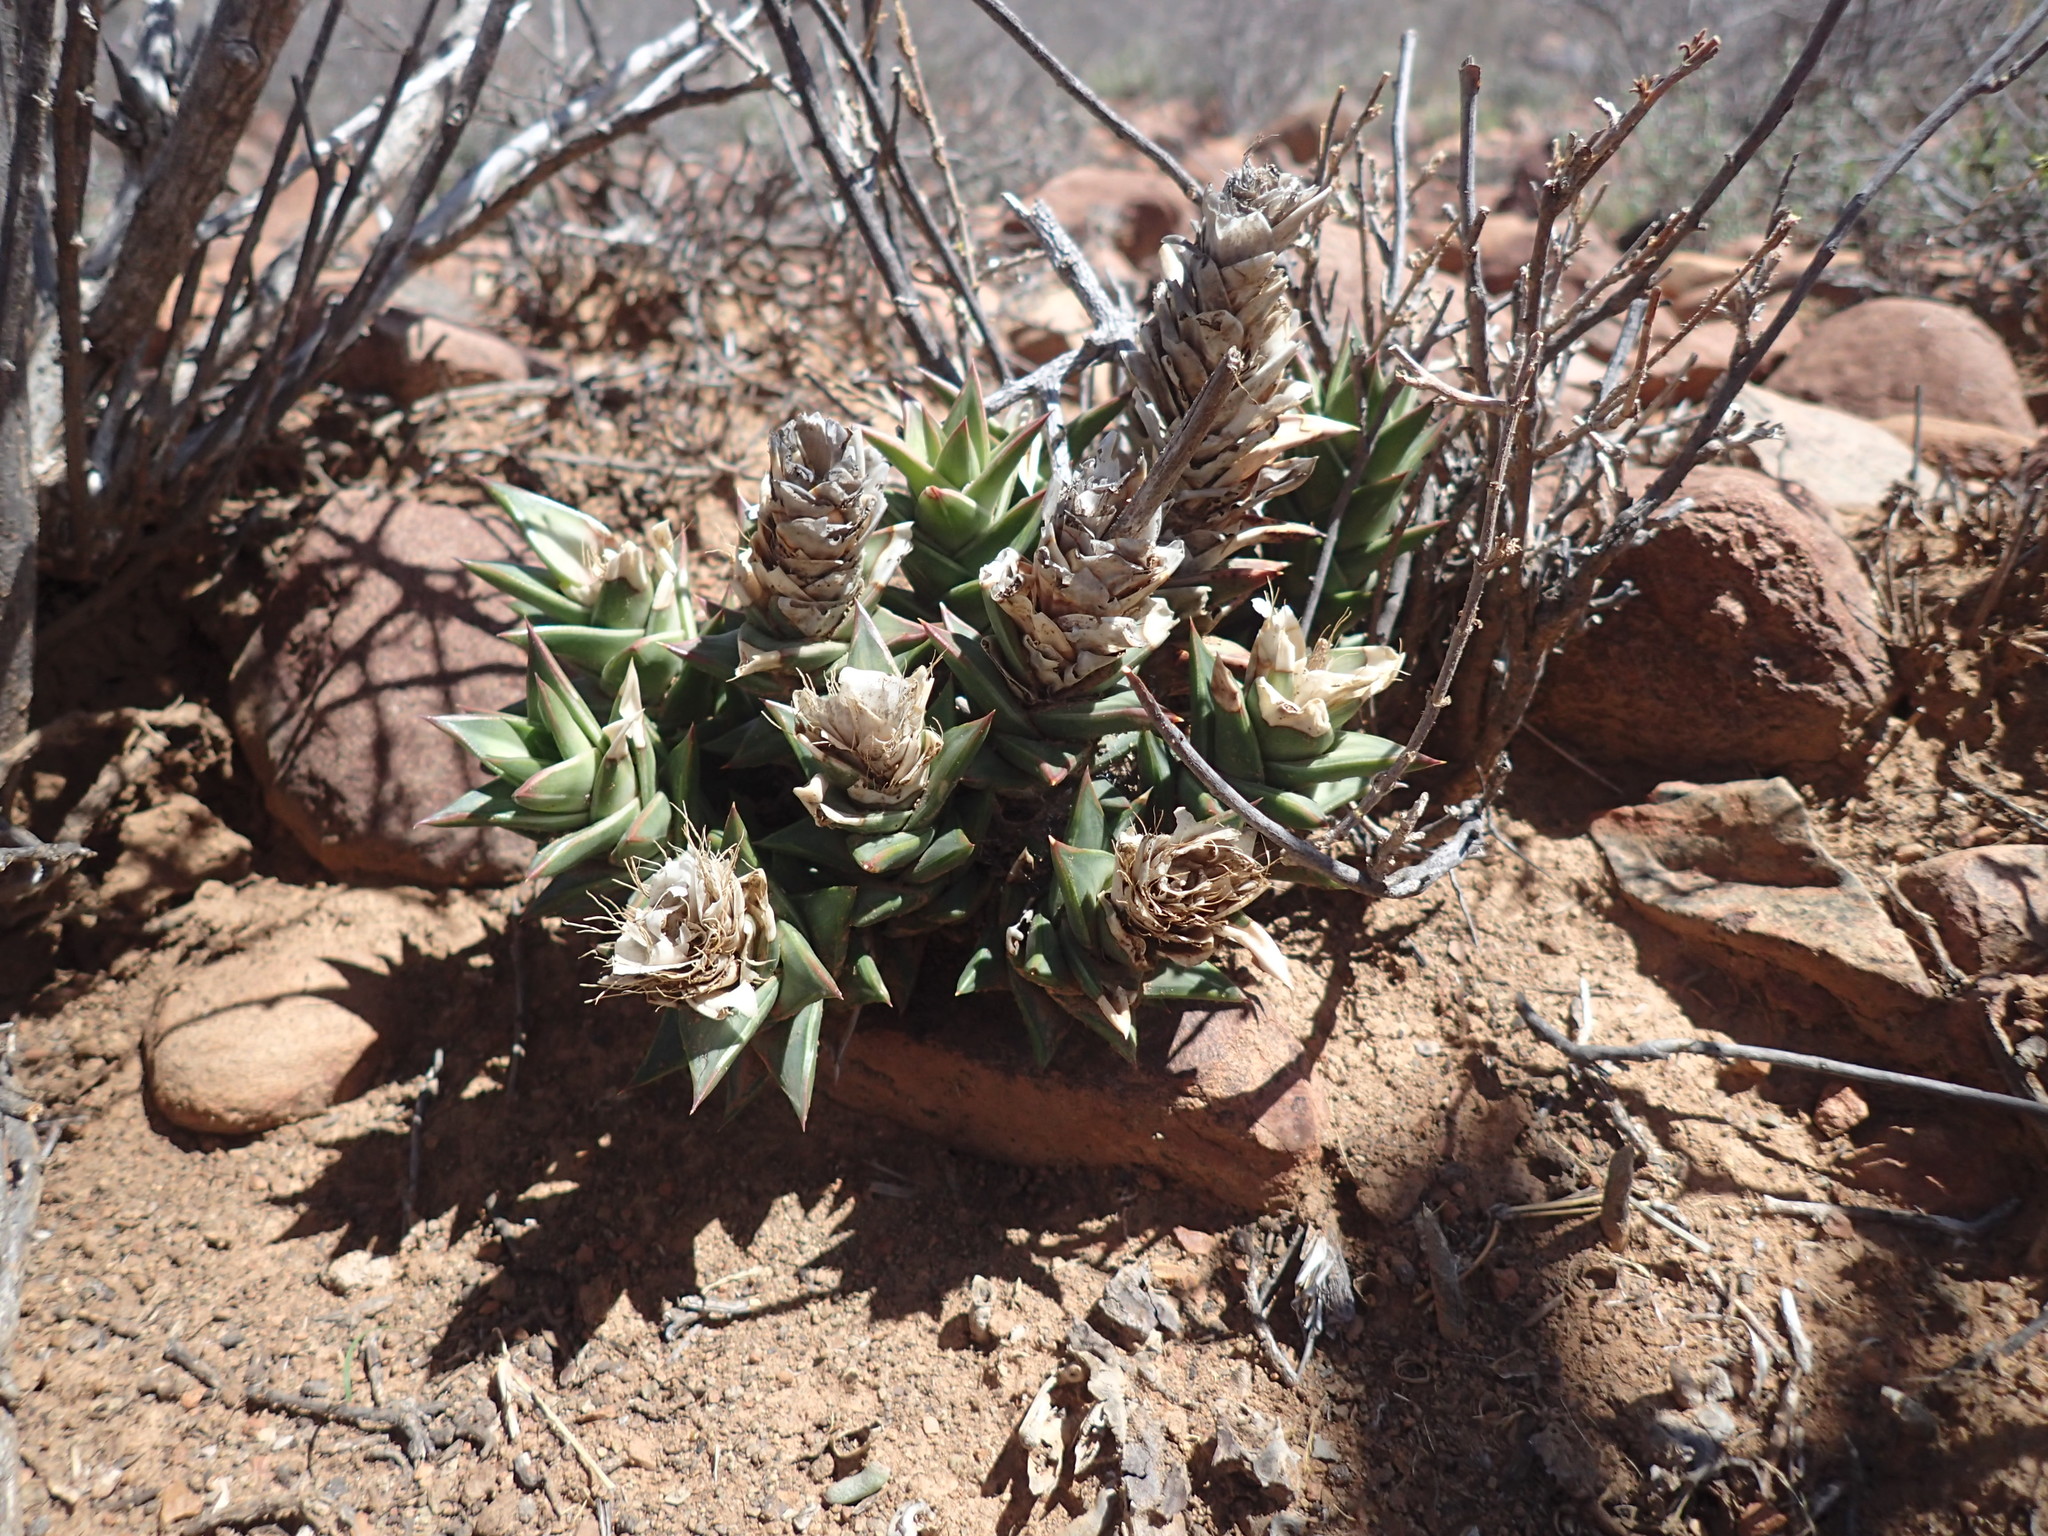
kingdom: Plantae
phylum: Tracheophyta
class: Liliopsida
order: Asparagales
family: Asphodelaceae
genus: Astroloba
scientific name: Astroloba robusta
